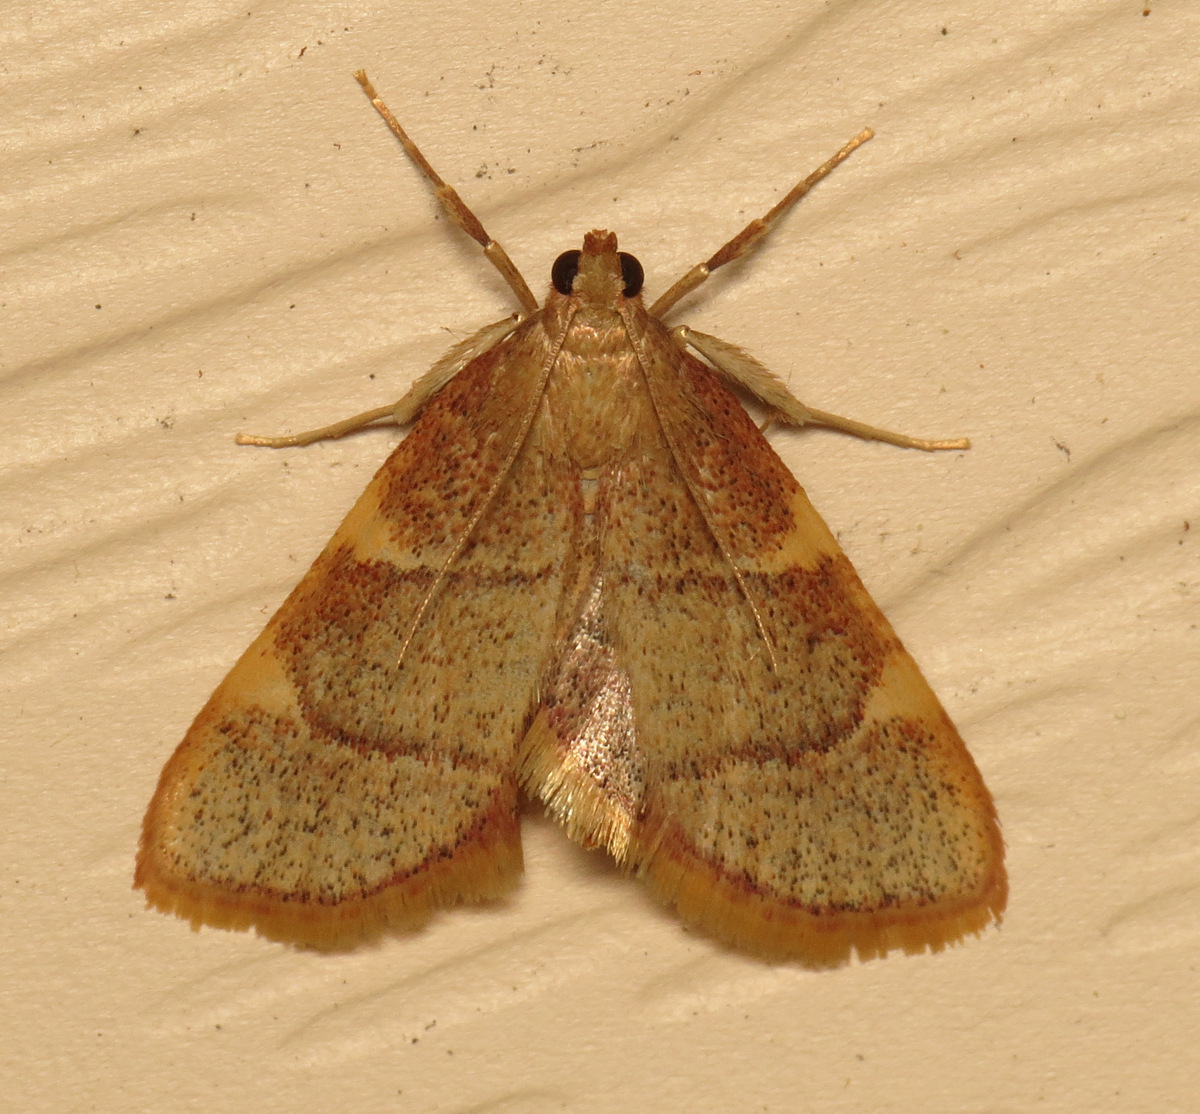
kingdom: Animalia
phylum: Arthropoda
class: Insecta
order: Lepidoptera
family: Pyralidae
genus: Hypsopygia
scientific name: Hypsopygia olinalis
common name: Yellow-fringed dolichomia moth
